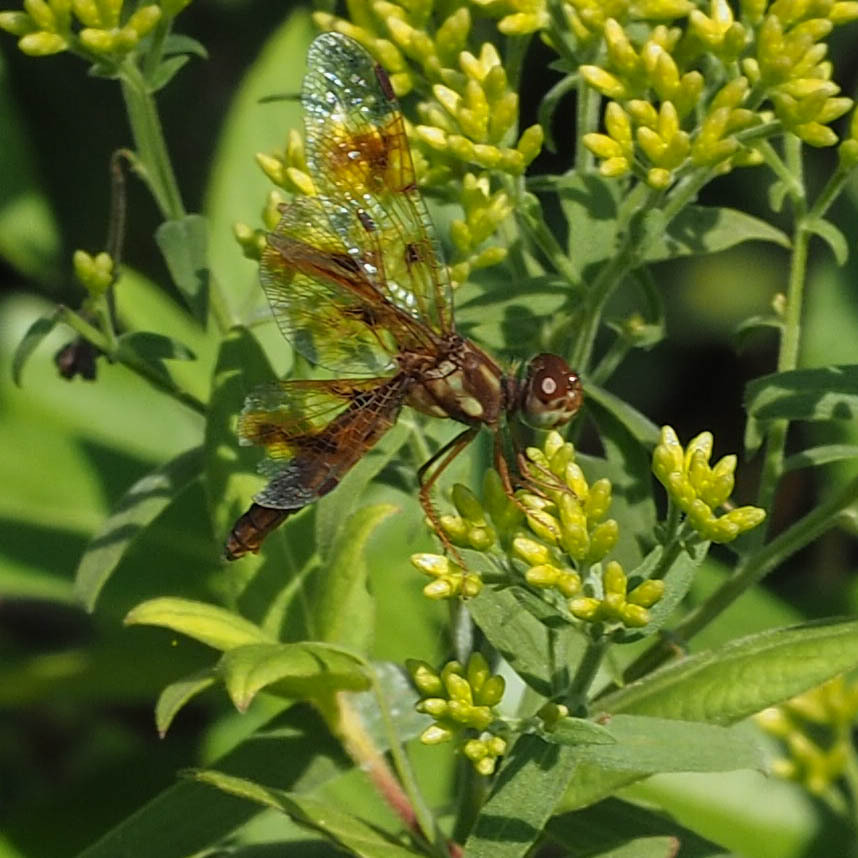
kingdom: Animalia
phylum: Arthropoda
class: Insecta
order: Odonata
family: Libellulidae
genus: Perithemis
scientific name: Perithemis tenera
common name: Eastern amberwing
